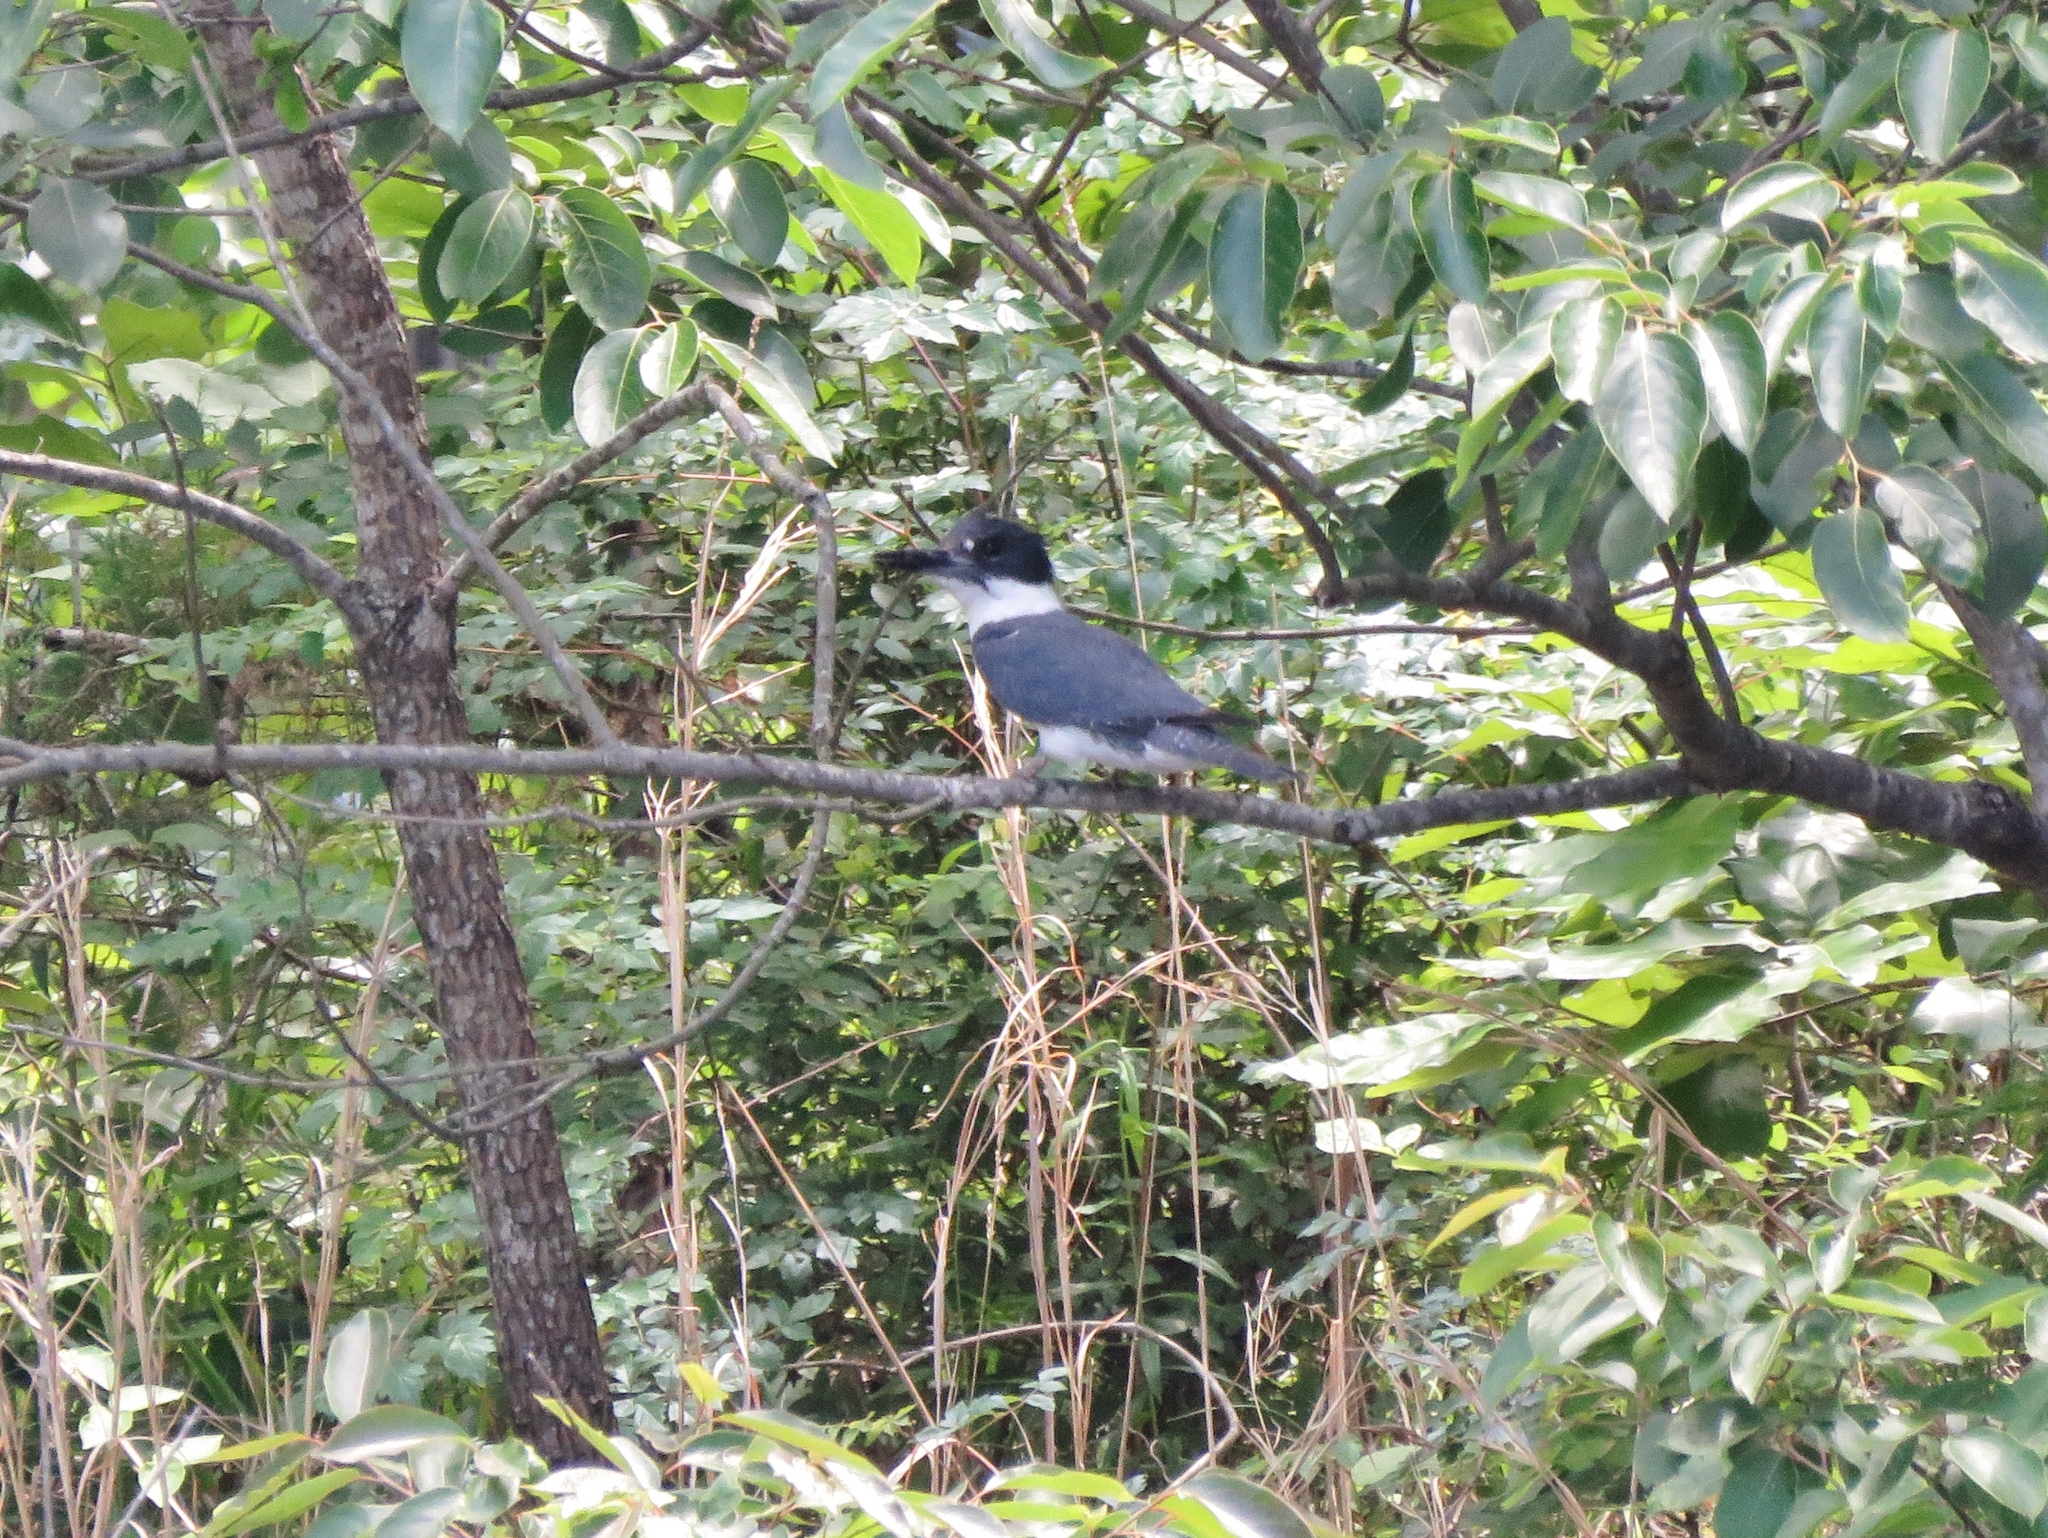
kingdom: Animalia
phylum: Chordata
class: Aves
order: Coraciiformes
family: Alcedinidae
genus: Megaceryle
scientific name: Megaceryle alcyon
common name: Belted kingfisher
